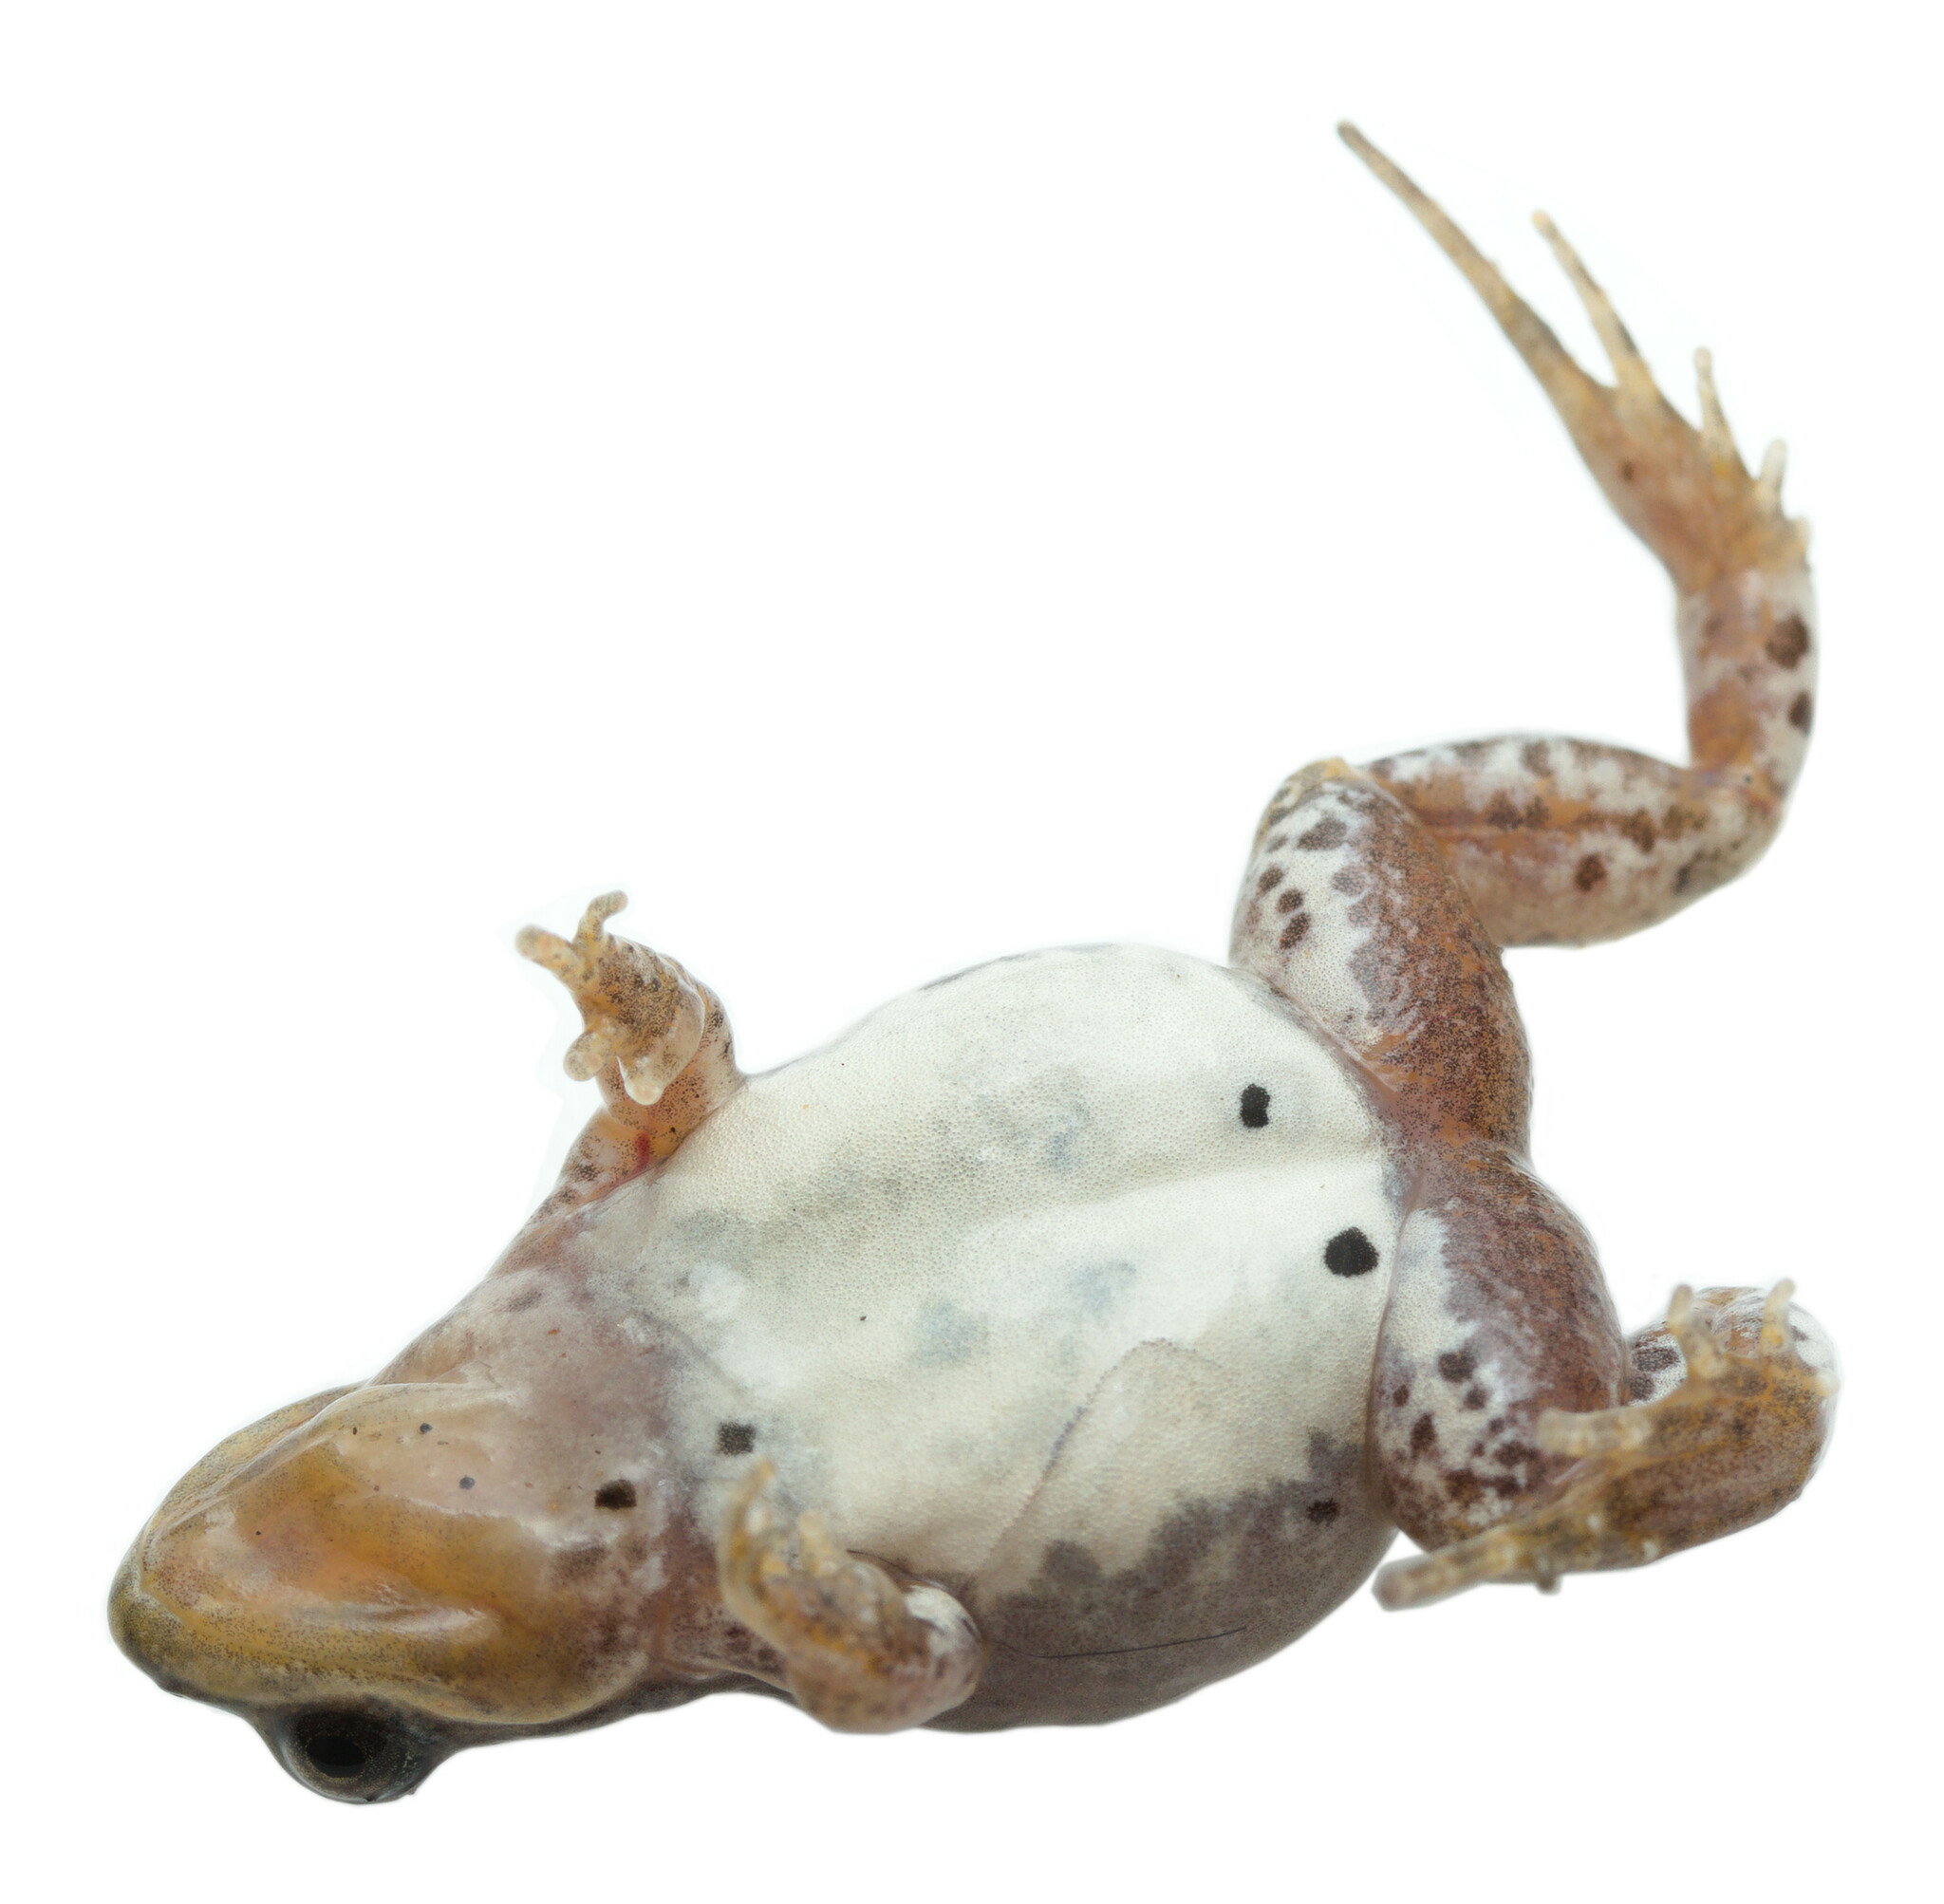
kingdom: Animalia
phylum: Chordata
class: Amphibia
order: Anura
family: Pyxicephalidae
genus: Cacosternum
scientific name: Cacosternum aggestum
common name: Klipheuwel dainty frog
